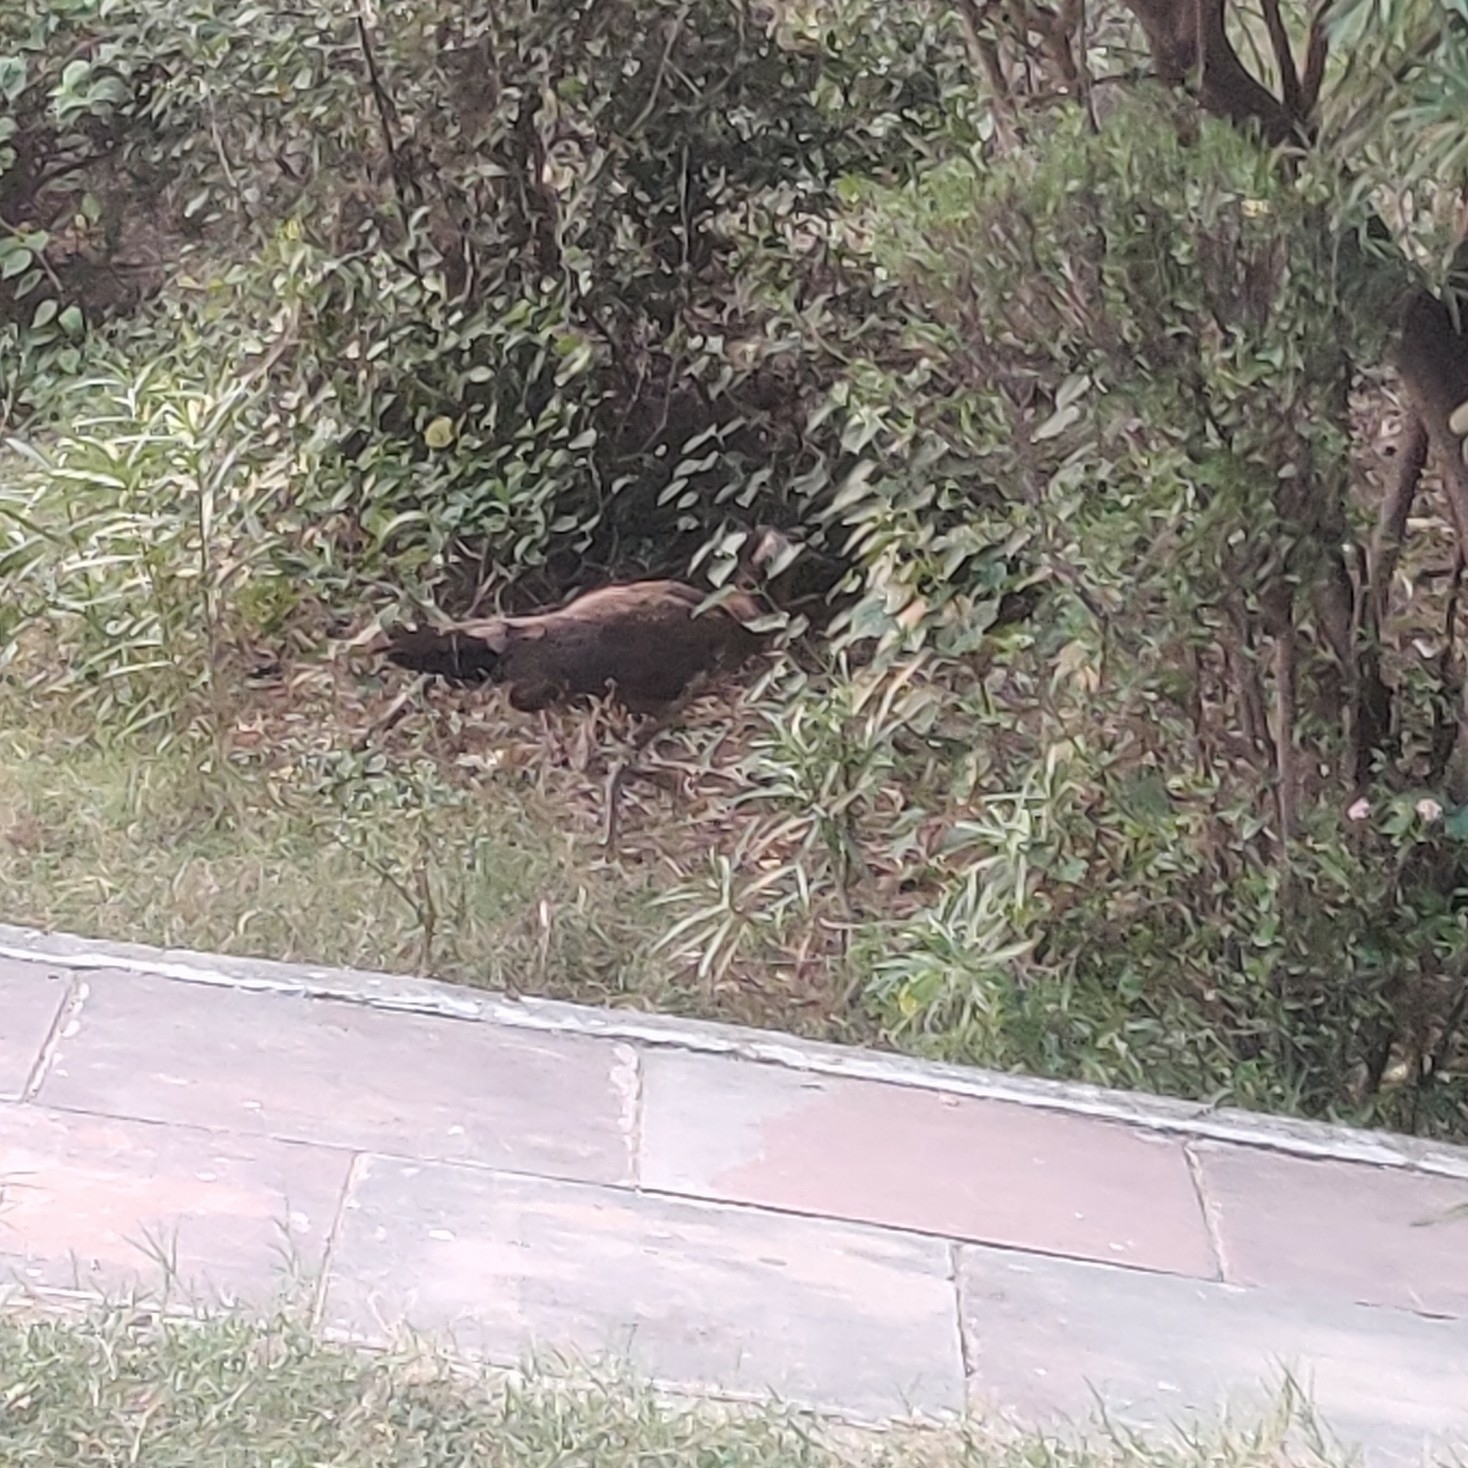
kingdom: Animalia
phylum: Chordata
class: Aves
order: Galliformes
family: Phasianidae
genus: Pavo
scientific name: Pavo cristatus
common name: Indian peafowl
